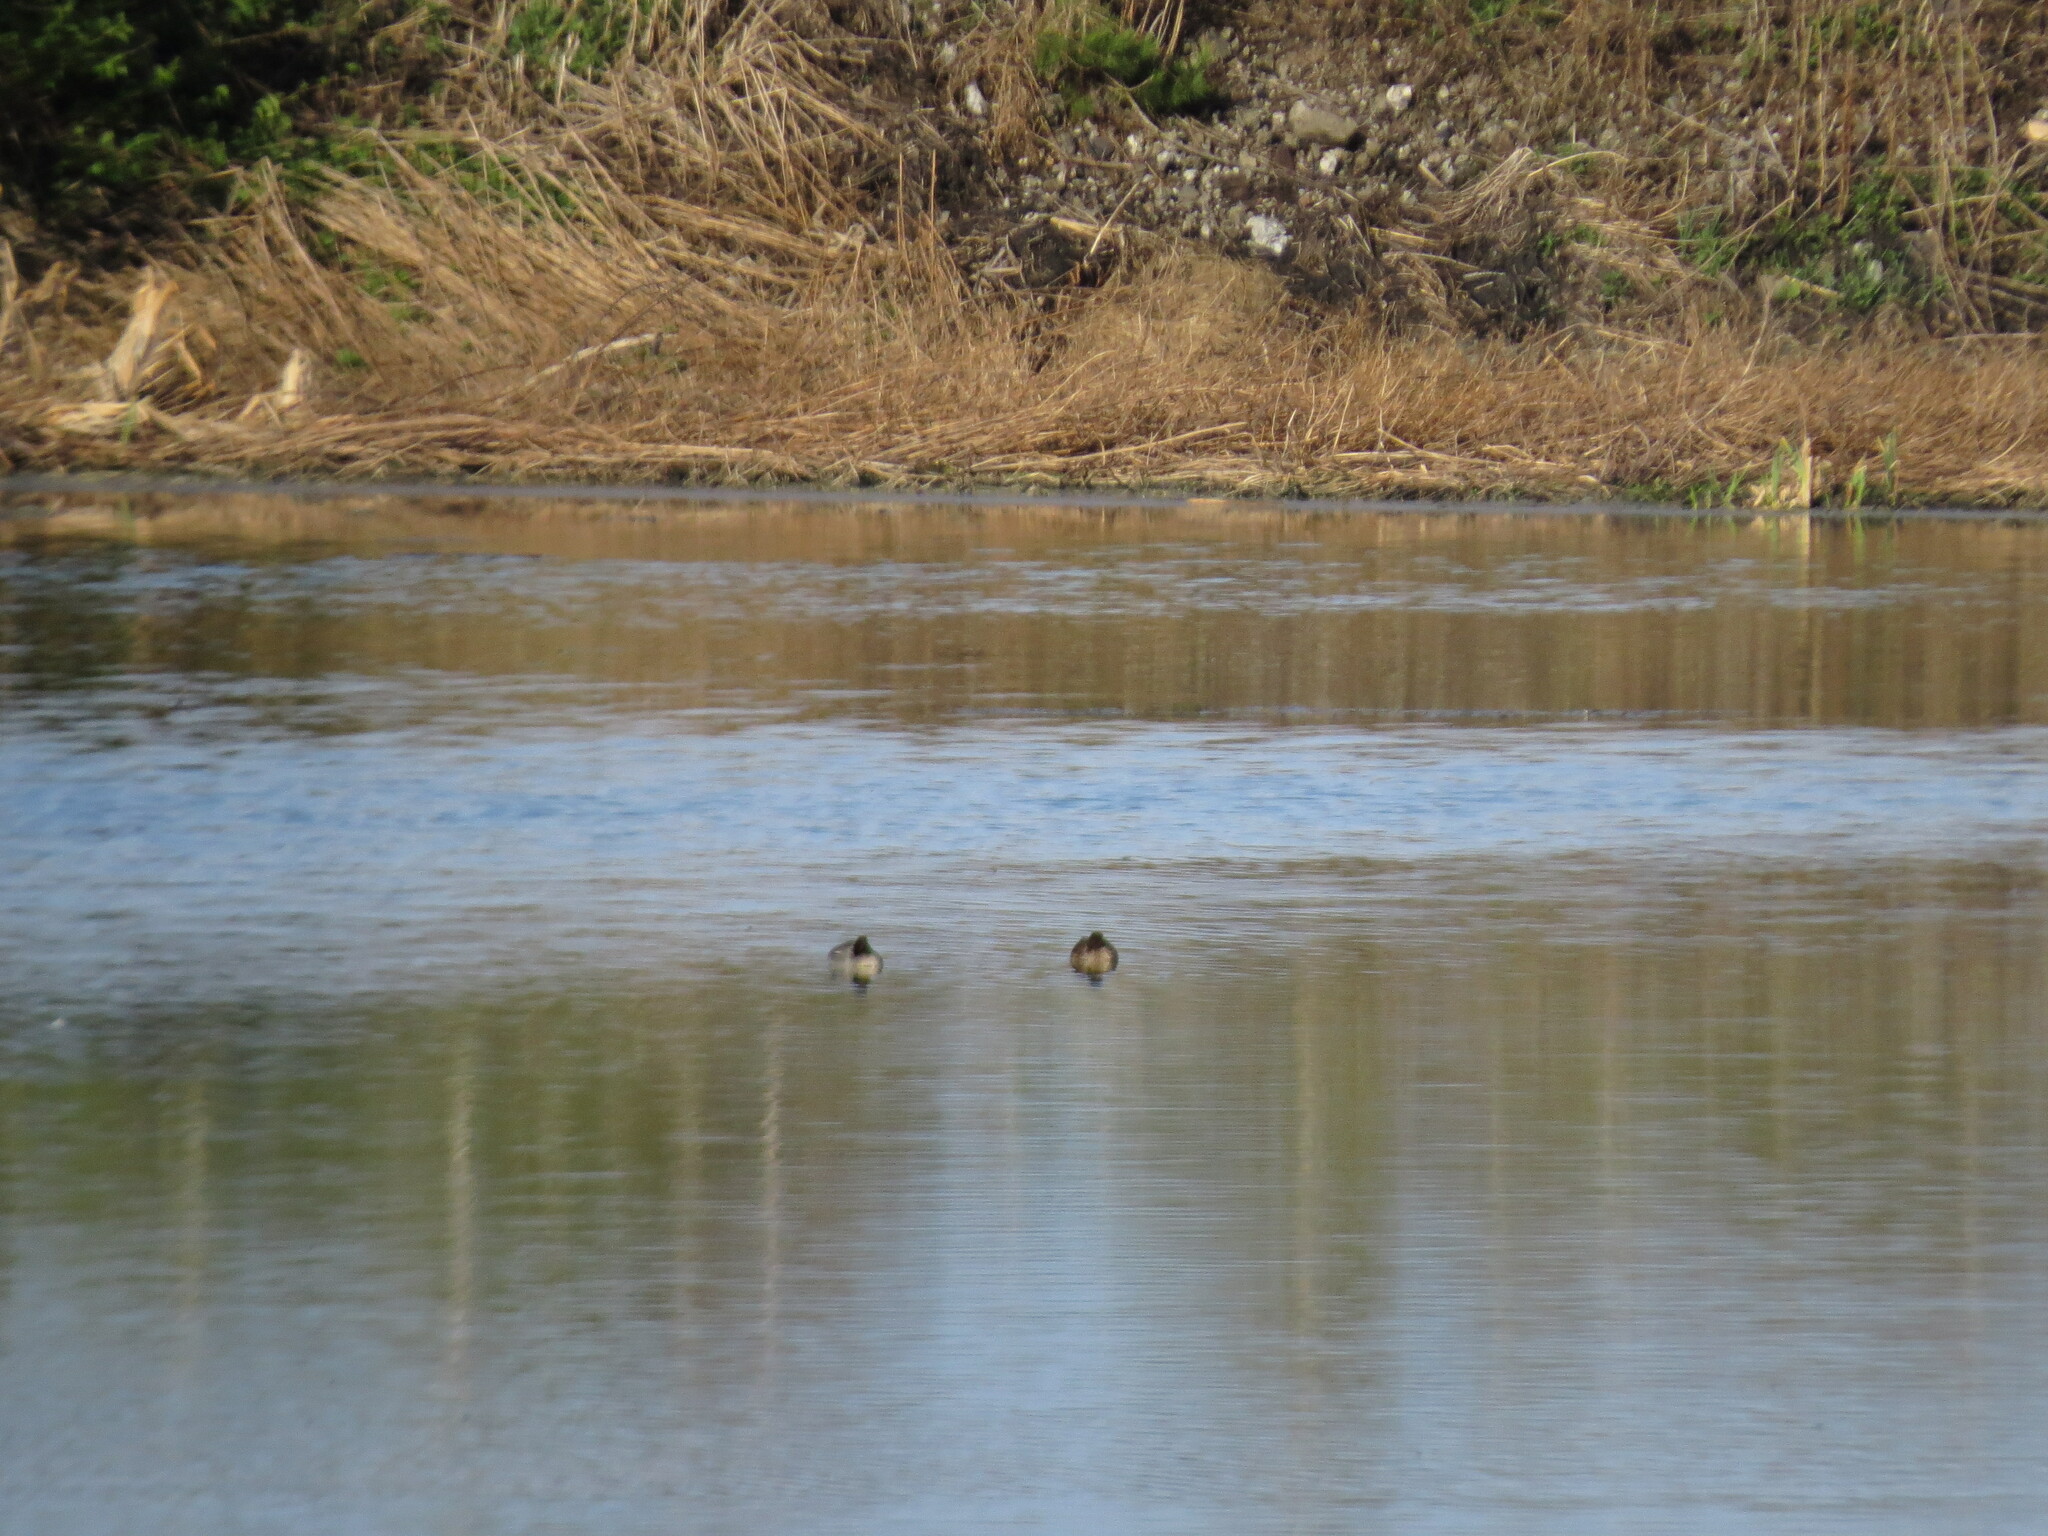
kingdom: Animalia
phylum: Chordata
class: Aves
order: Anseriformes
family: Anatidae
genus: Anas
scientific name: Anas crecca
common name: Eurasian teal
